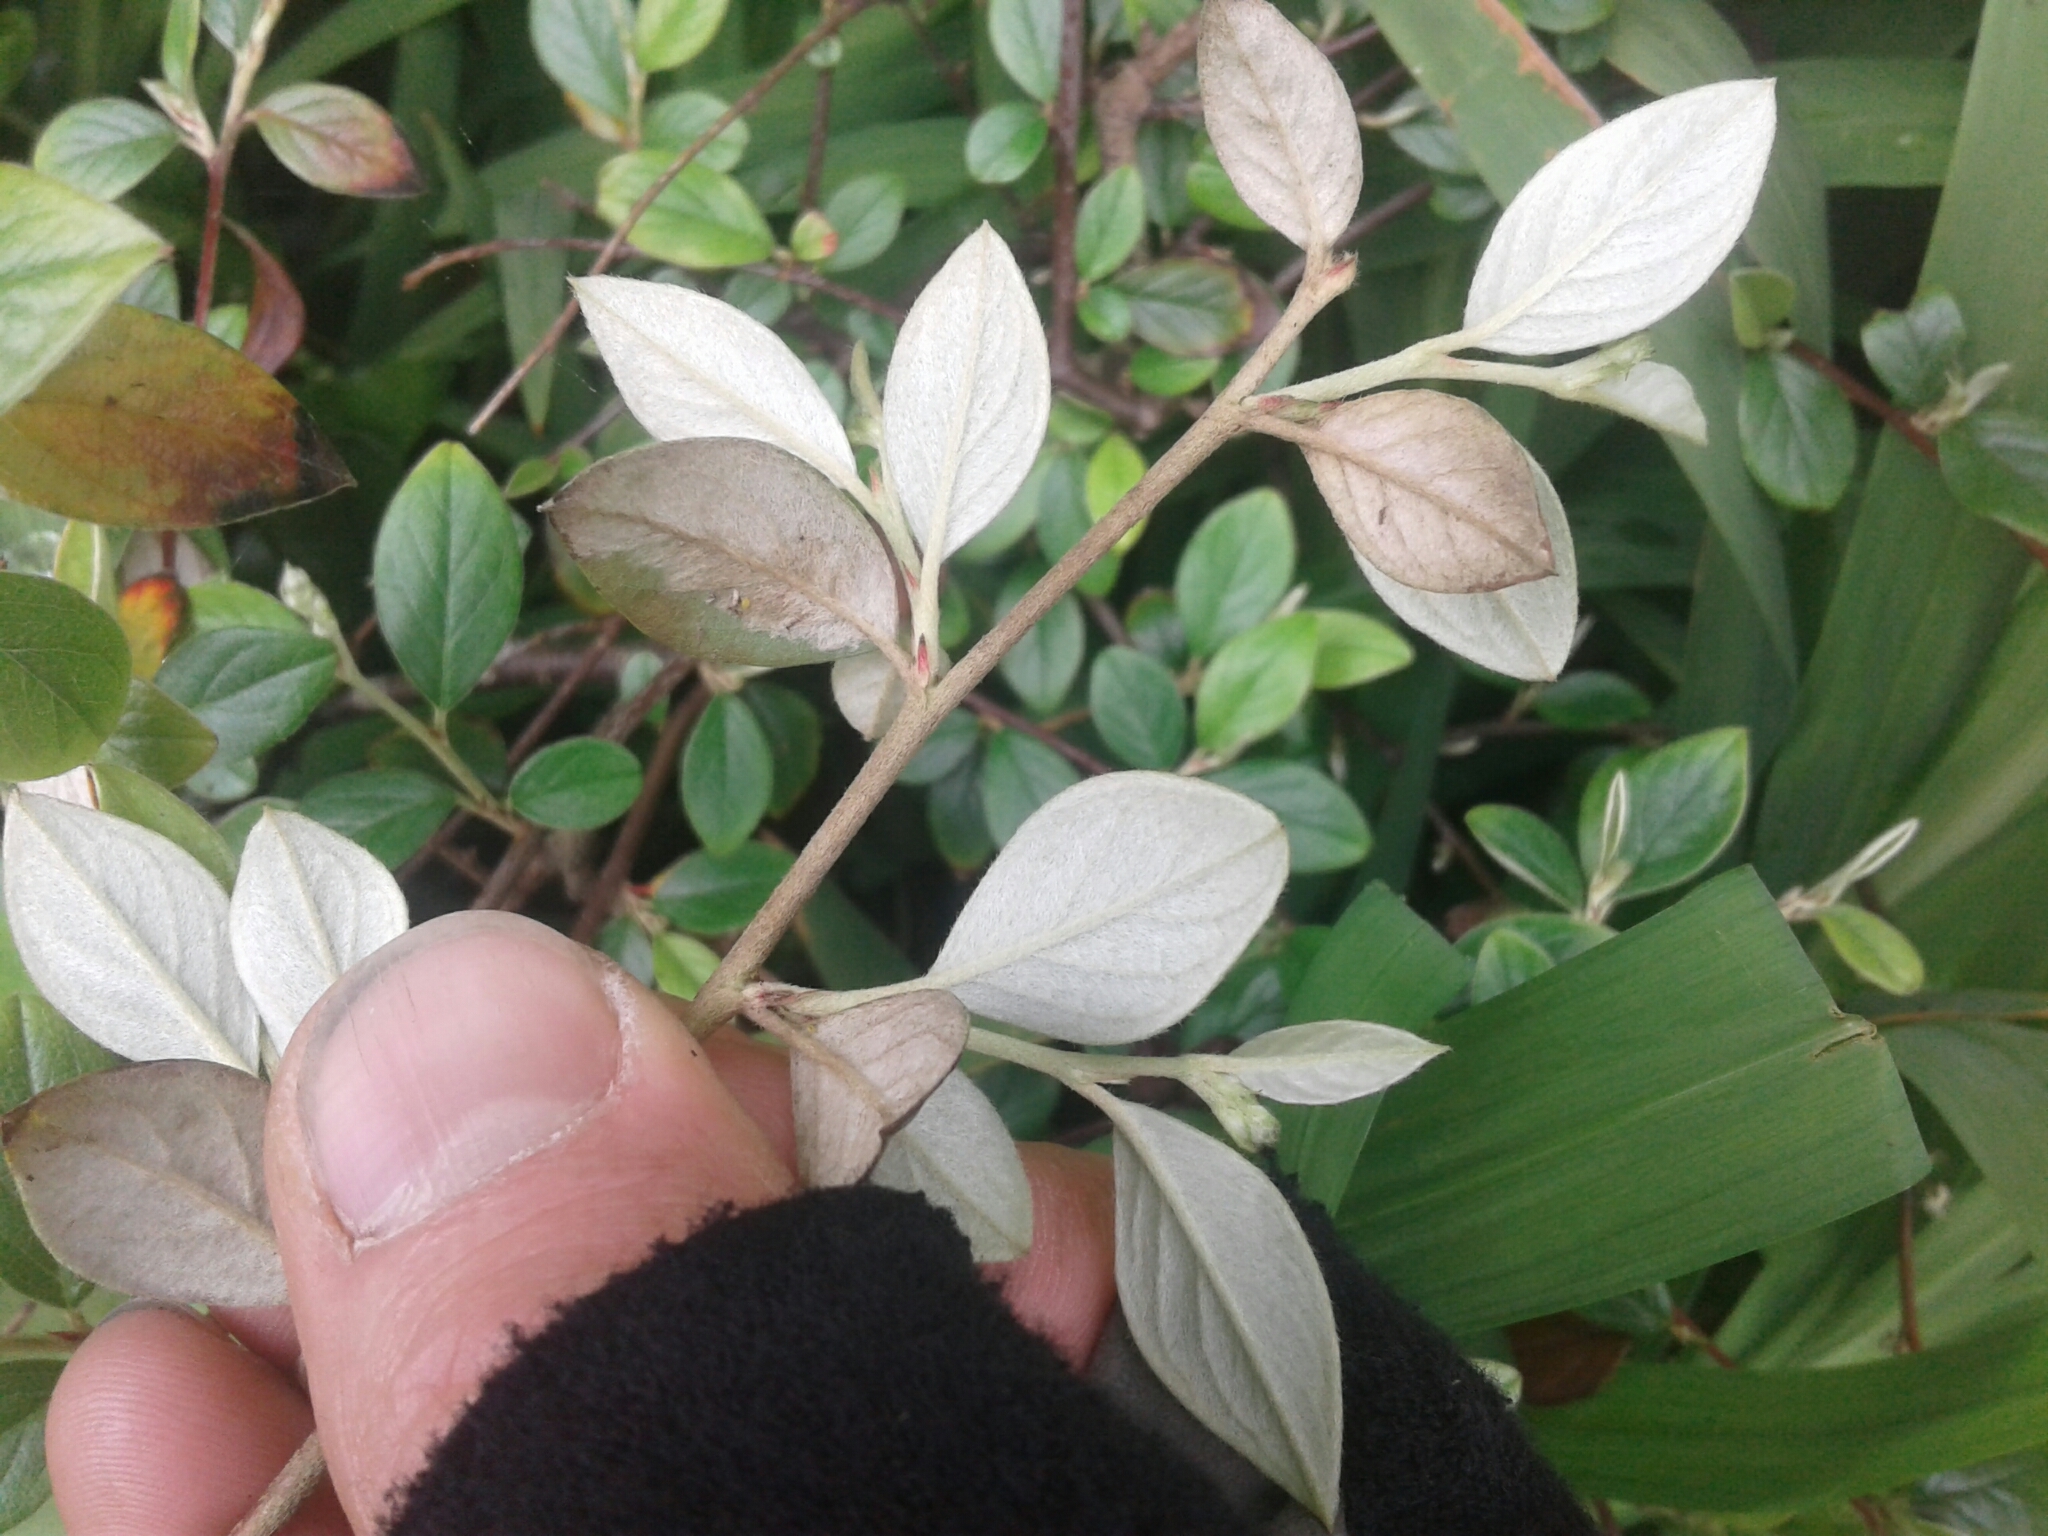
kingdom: Plantae
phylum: Tracheophyta
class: Magnoliopsida
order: Rosales
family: Rosaceae
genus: Cotoneaster
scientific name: Cotoneaster franchetii
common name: Franchet's cotoneaster
